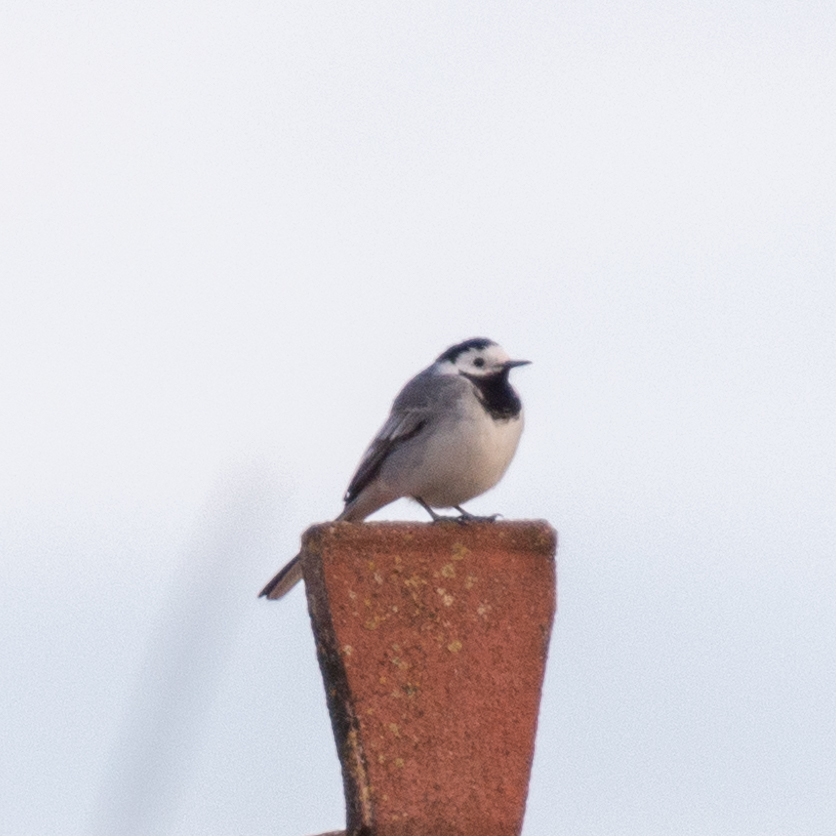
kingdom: Animalia
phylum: Chordata
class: Aves
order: Passeriformes
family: Motacillidae
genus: Motacilla
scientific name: Motacilla alba
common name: White wagtail
